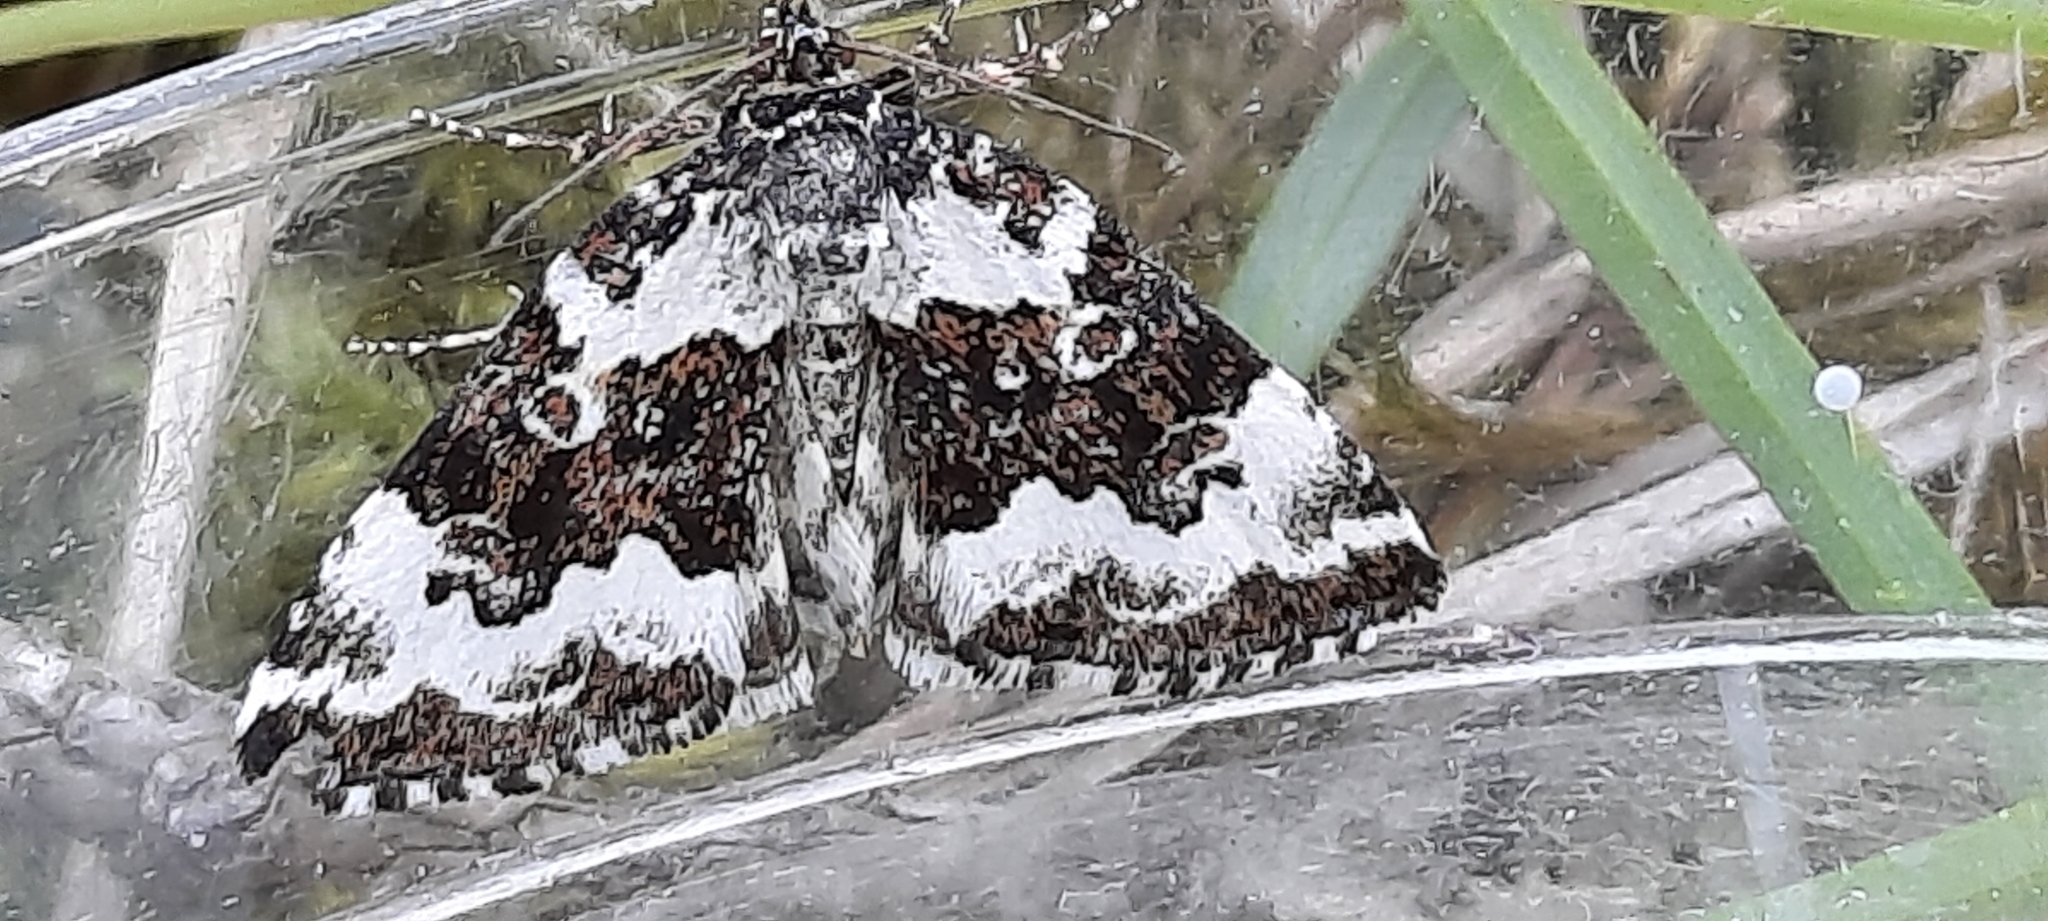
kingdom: Animalia
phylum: Arthropoda
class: Insecta
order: Lepidoptera
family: Noctuidae
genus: Deltote
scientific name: Deltote deceptoria
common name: Pretty marbled
